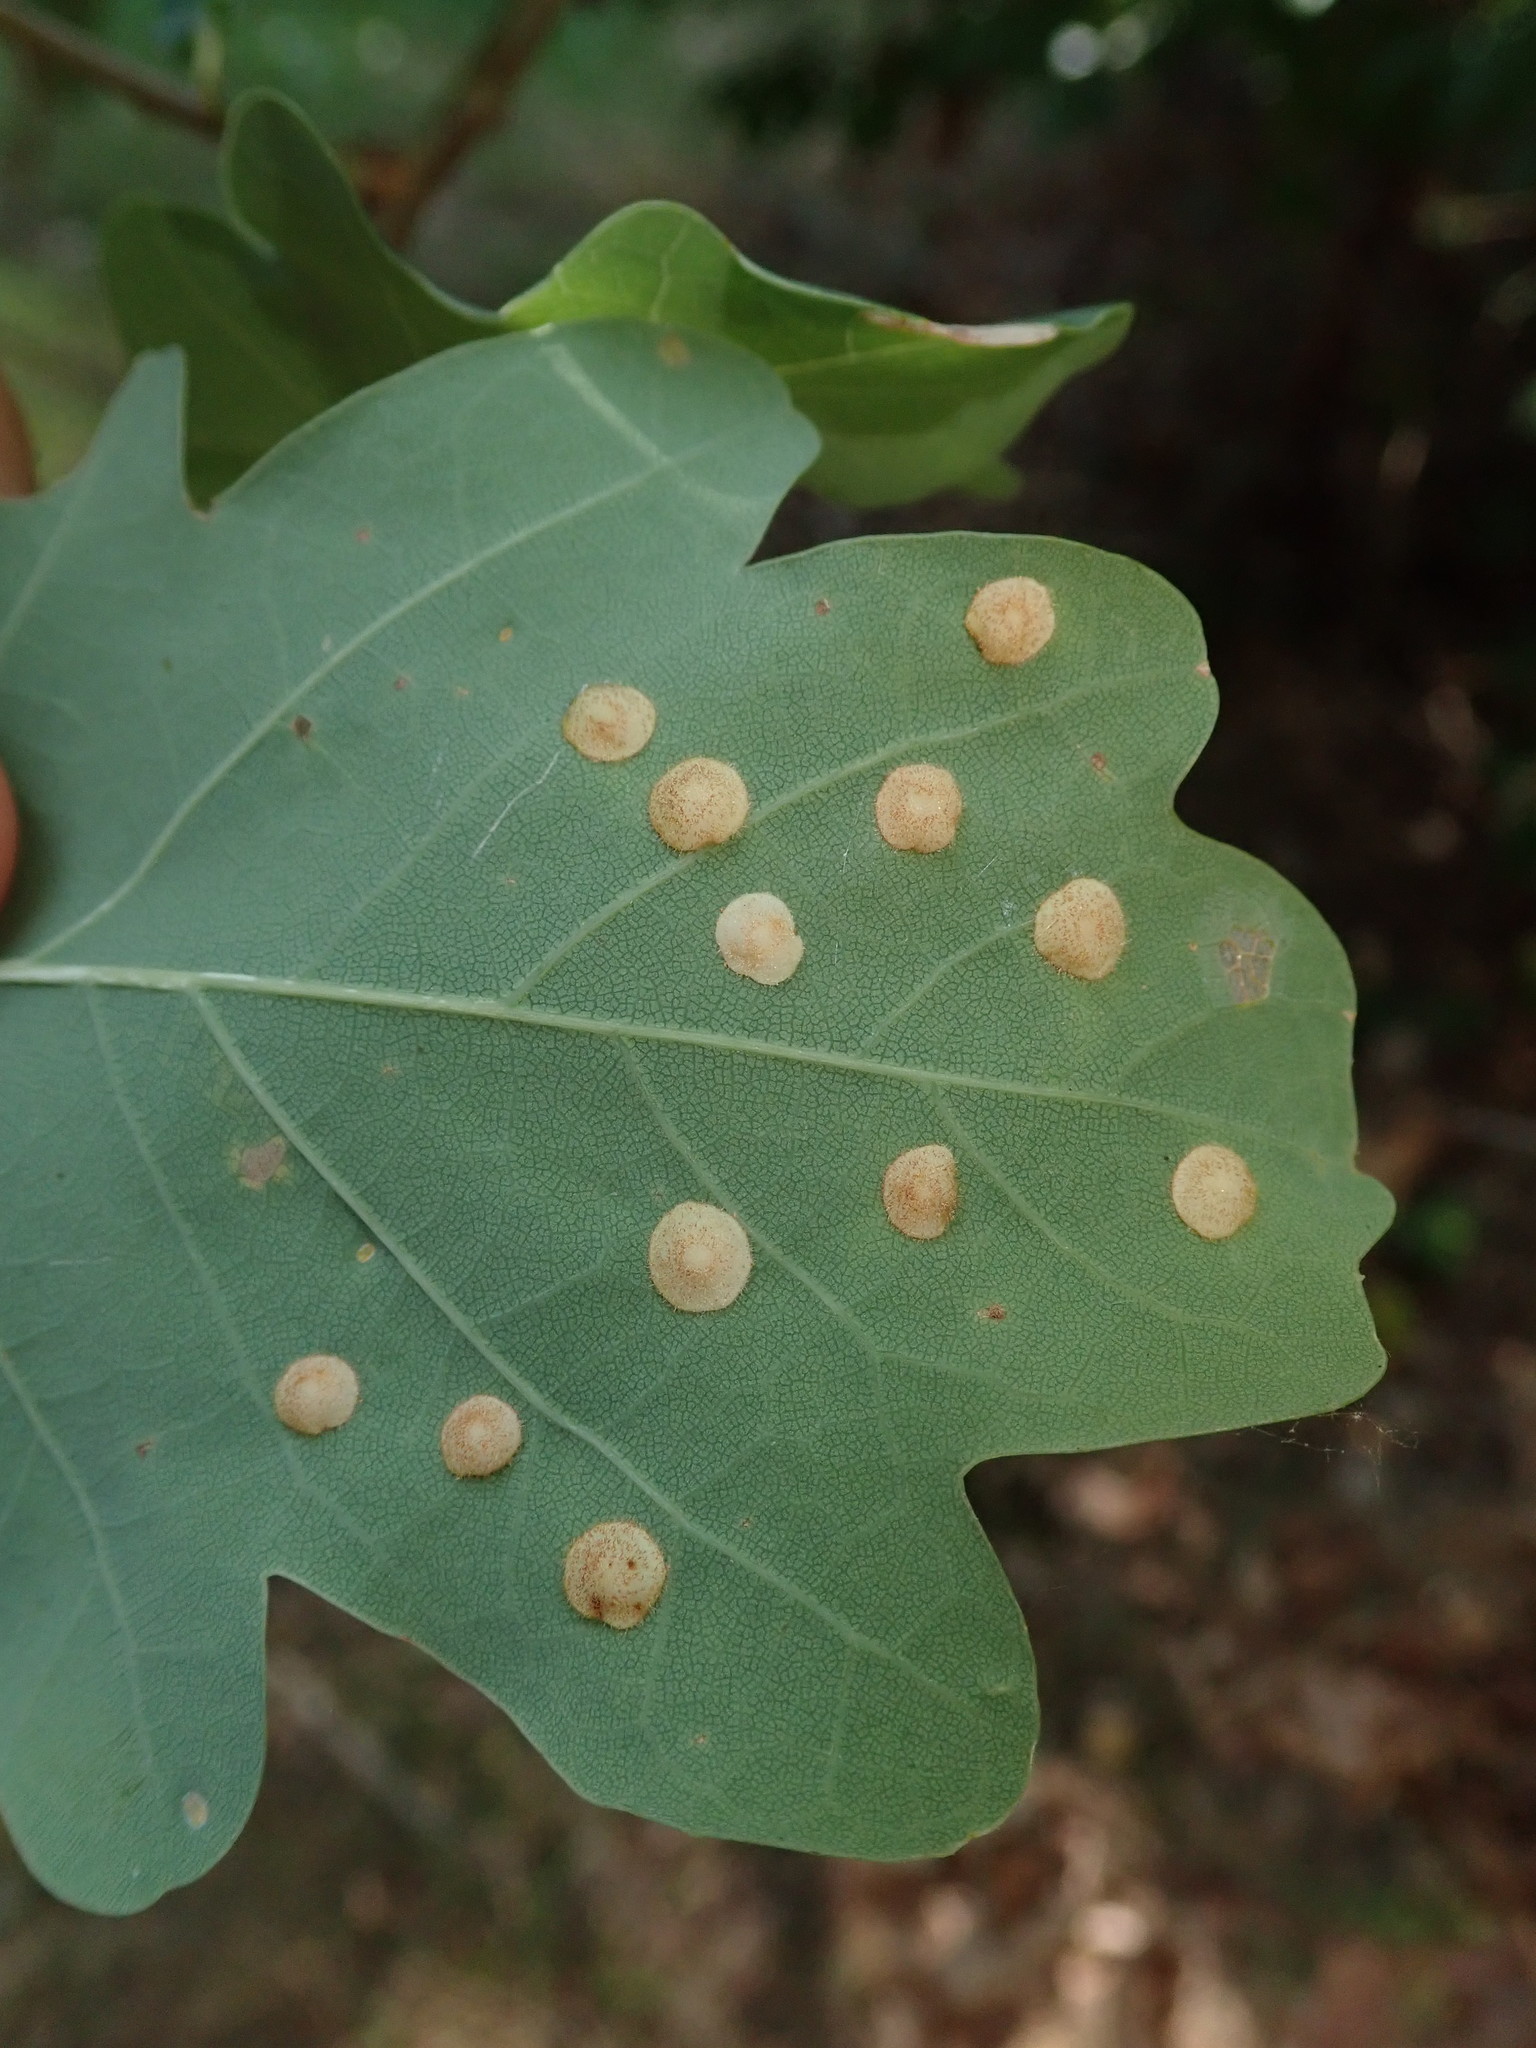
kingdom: Animalia
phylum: Arthropoda
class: Insecta
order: Hymenoptera
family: Cynipidae
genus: Neuroterus
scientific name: Neuroterus quercusbaccarum
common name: Common spangle gall
